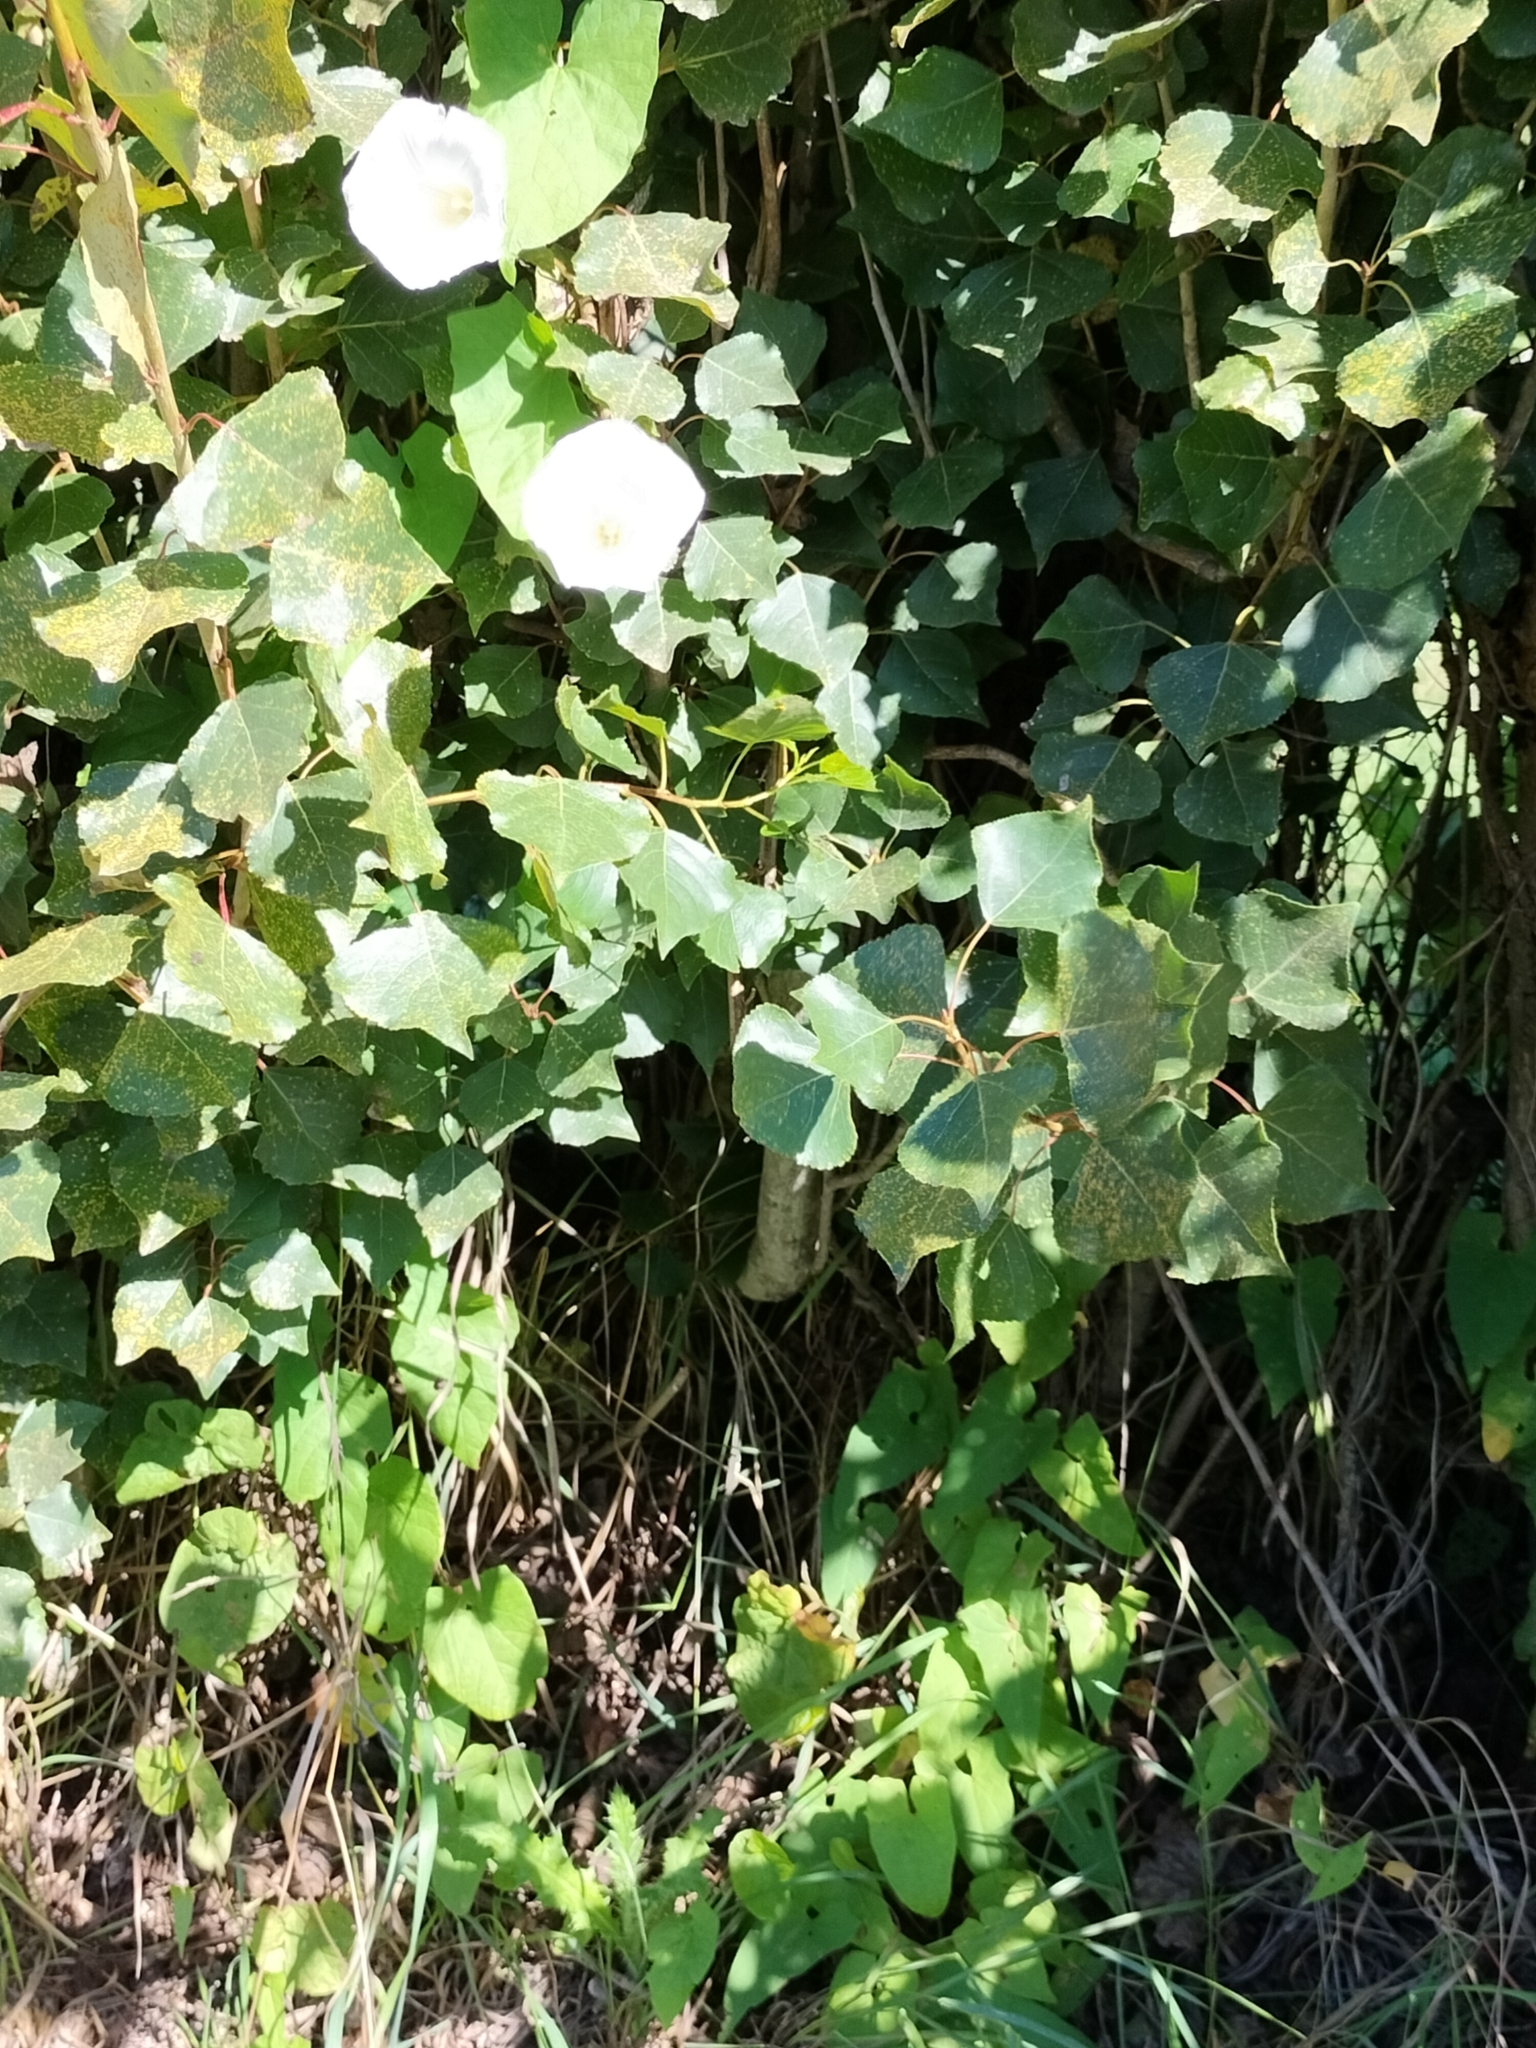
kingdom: Plantae
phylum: Tracheophyta
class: Magnoliopsida
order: Solanales
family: Convolvulaceae
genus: Calystegia
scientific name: Calystegia silvatica
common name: Large bindweed
